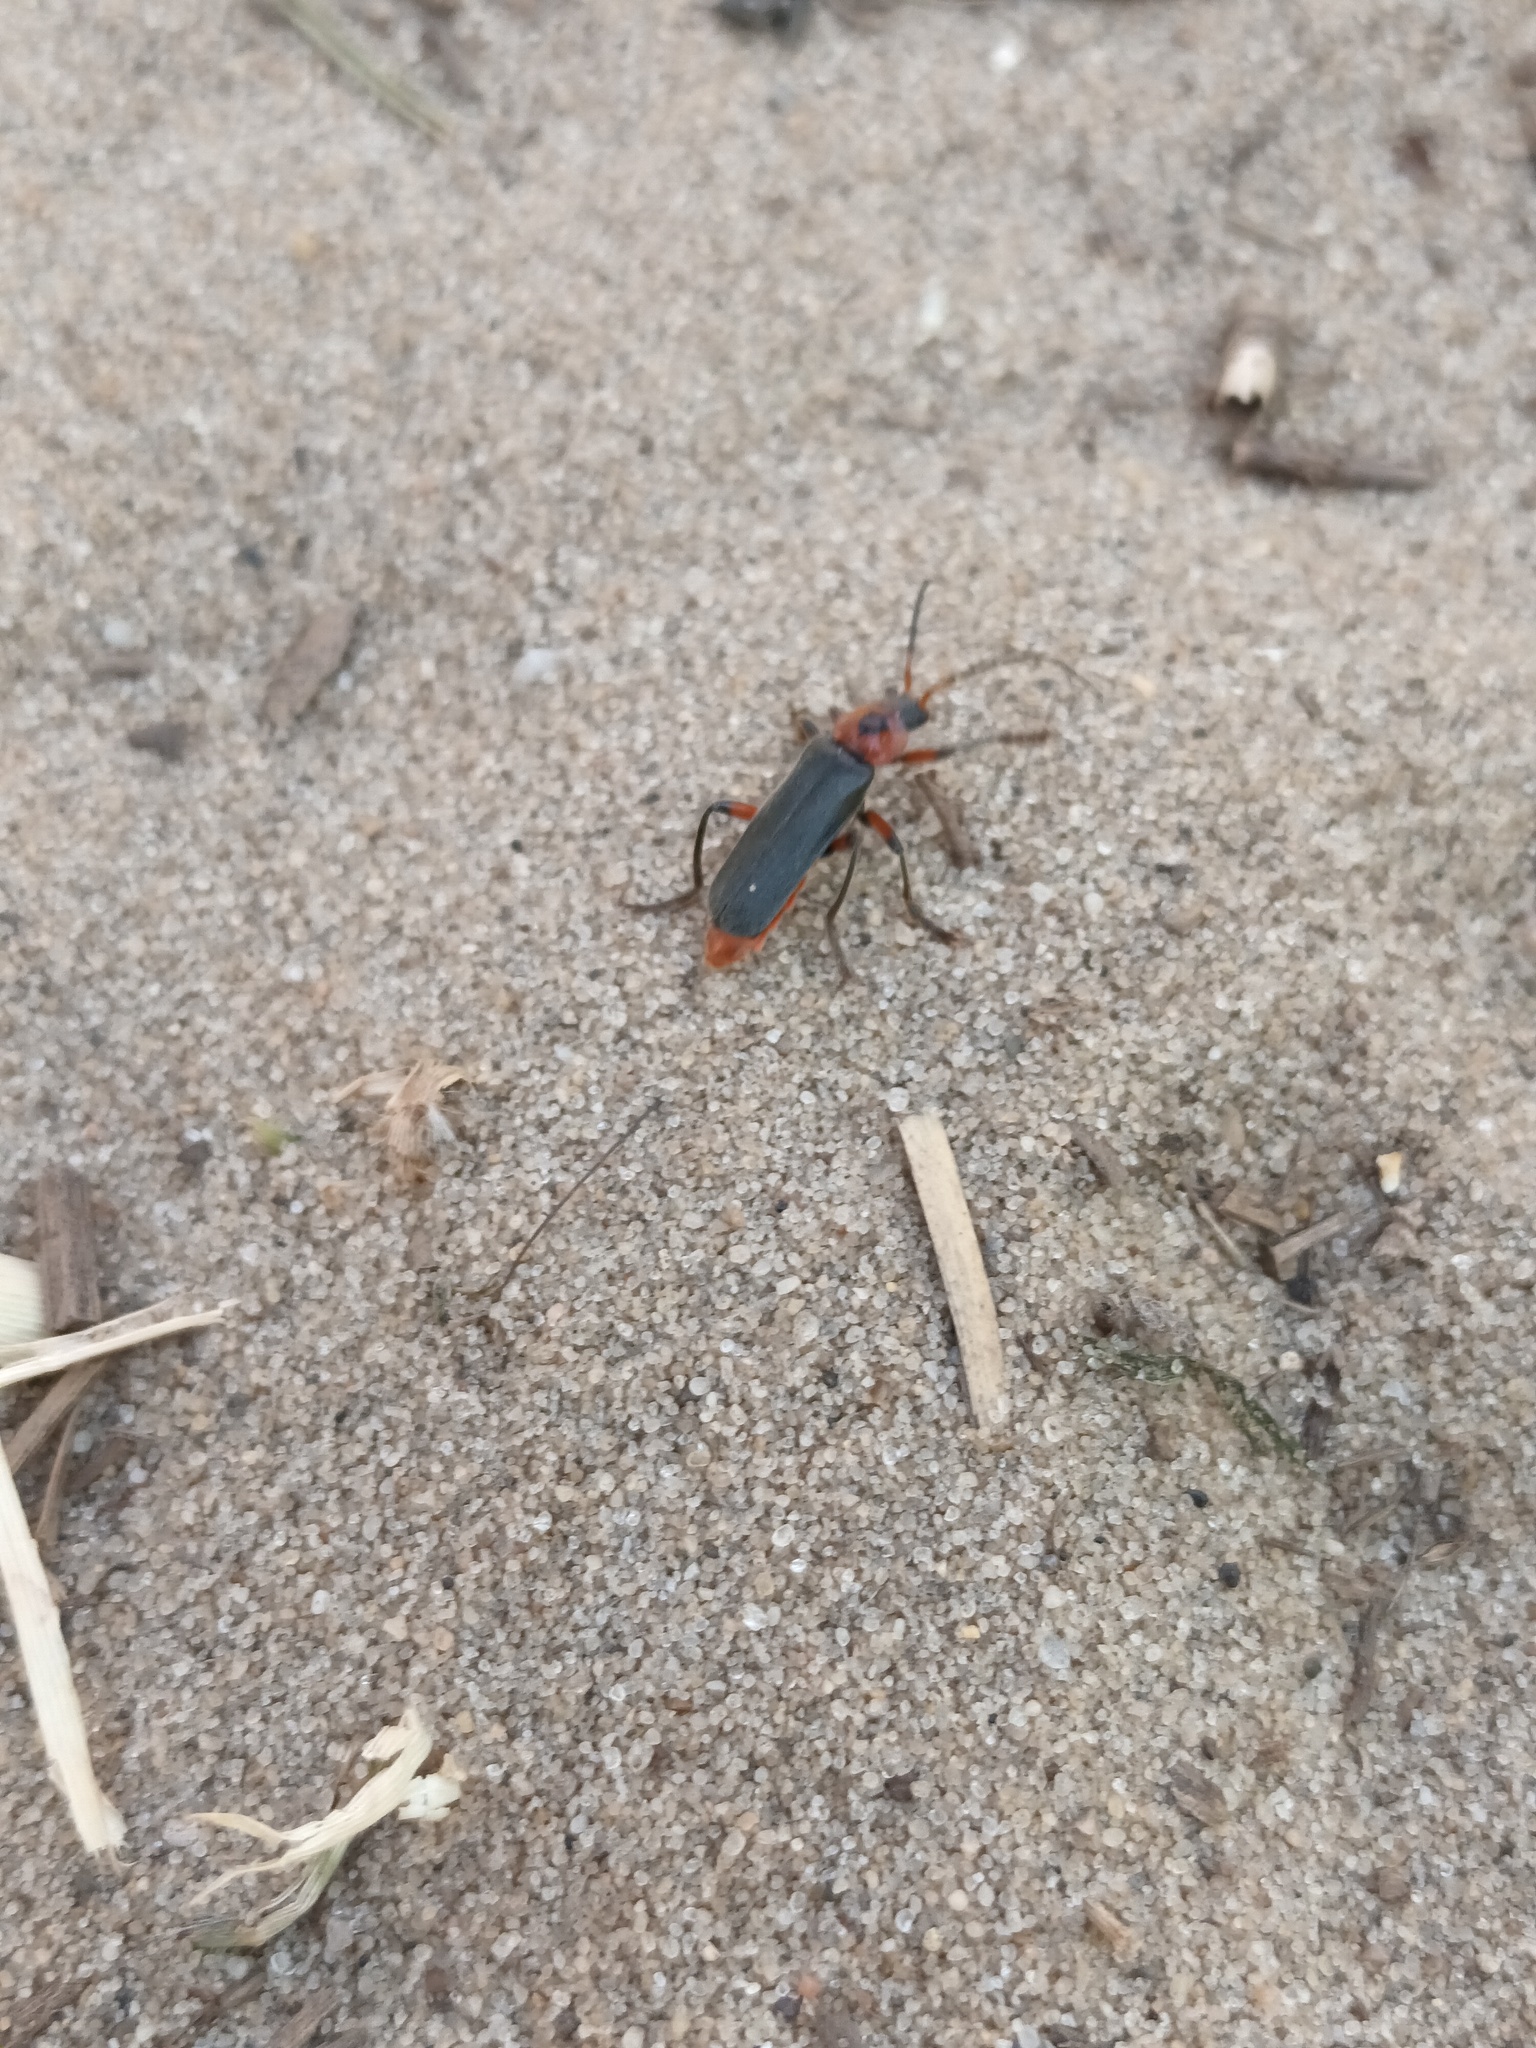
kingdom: Animalia
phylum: Arthropoda
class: Insecta
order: Coleoptera
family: Cantharidae
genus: Cantharis
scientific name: Cantharis rustica
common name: Soldier beetle
